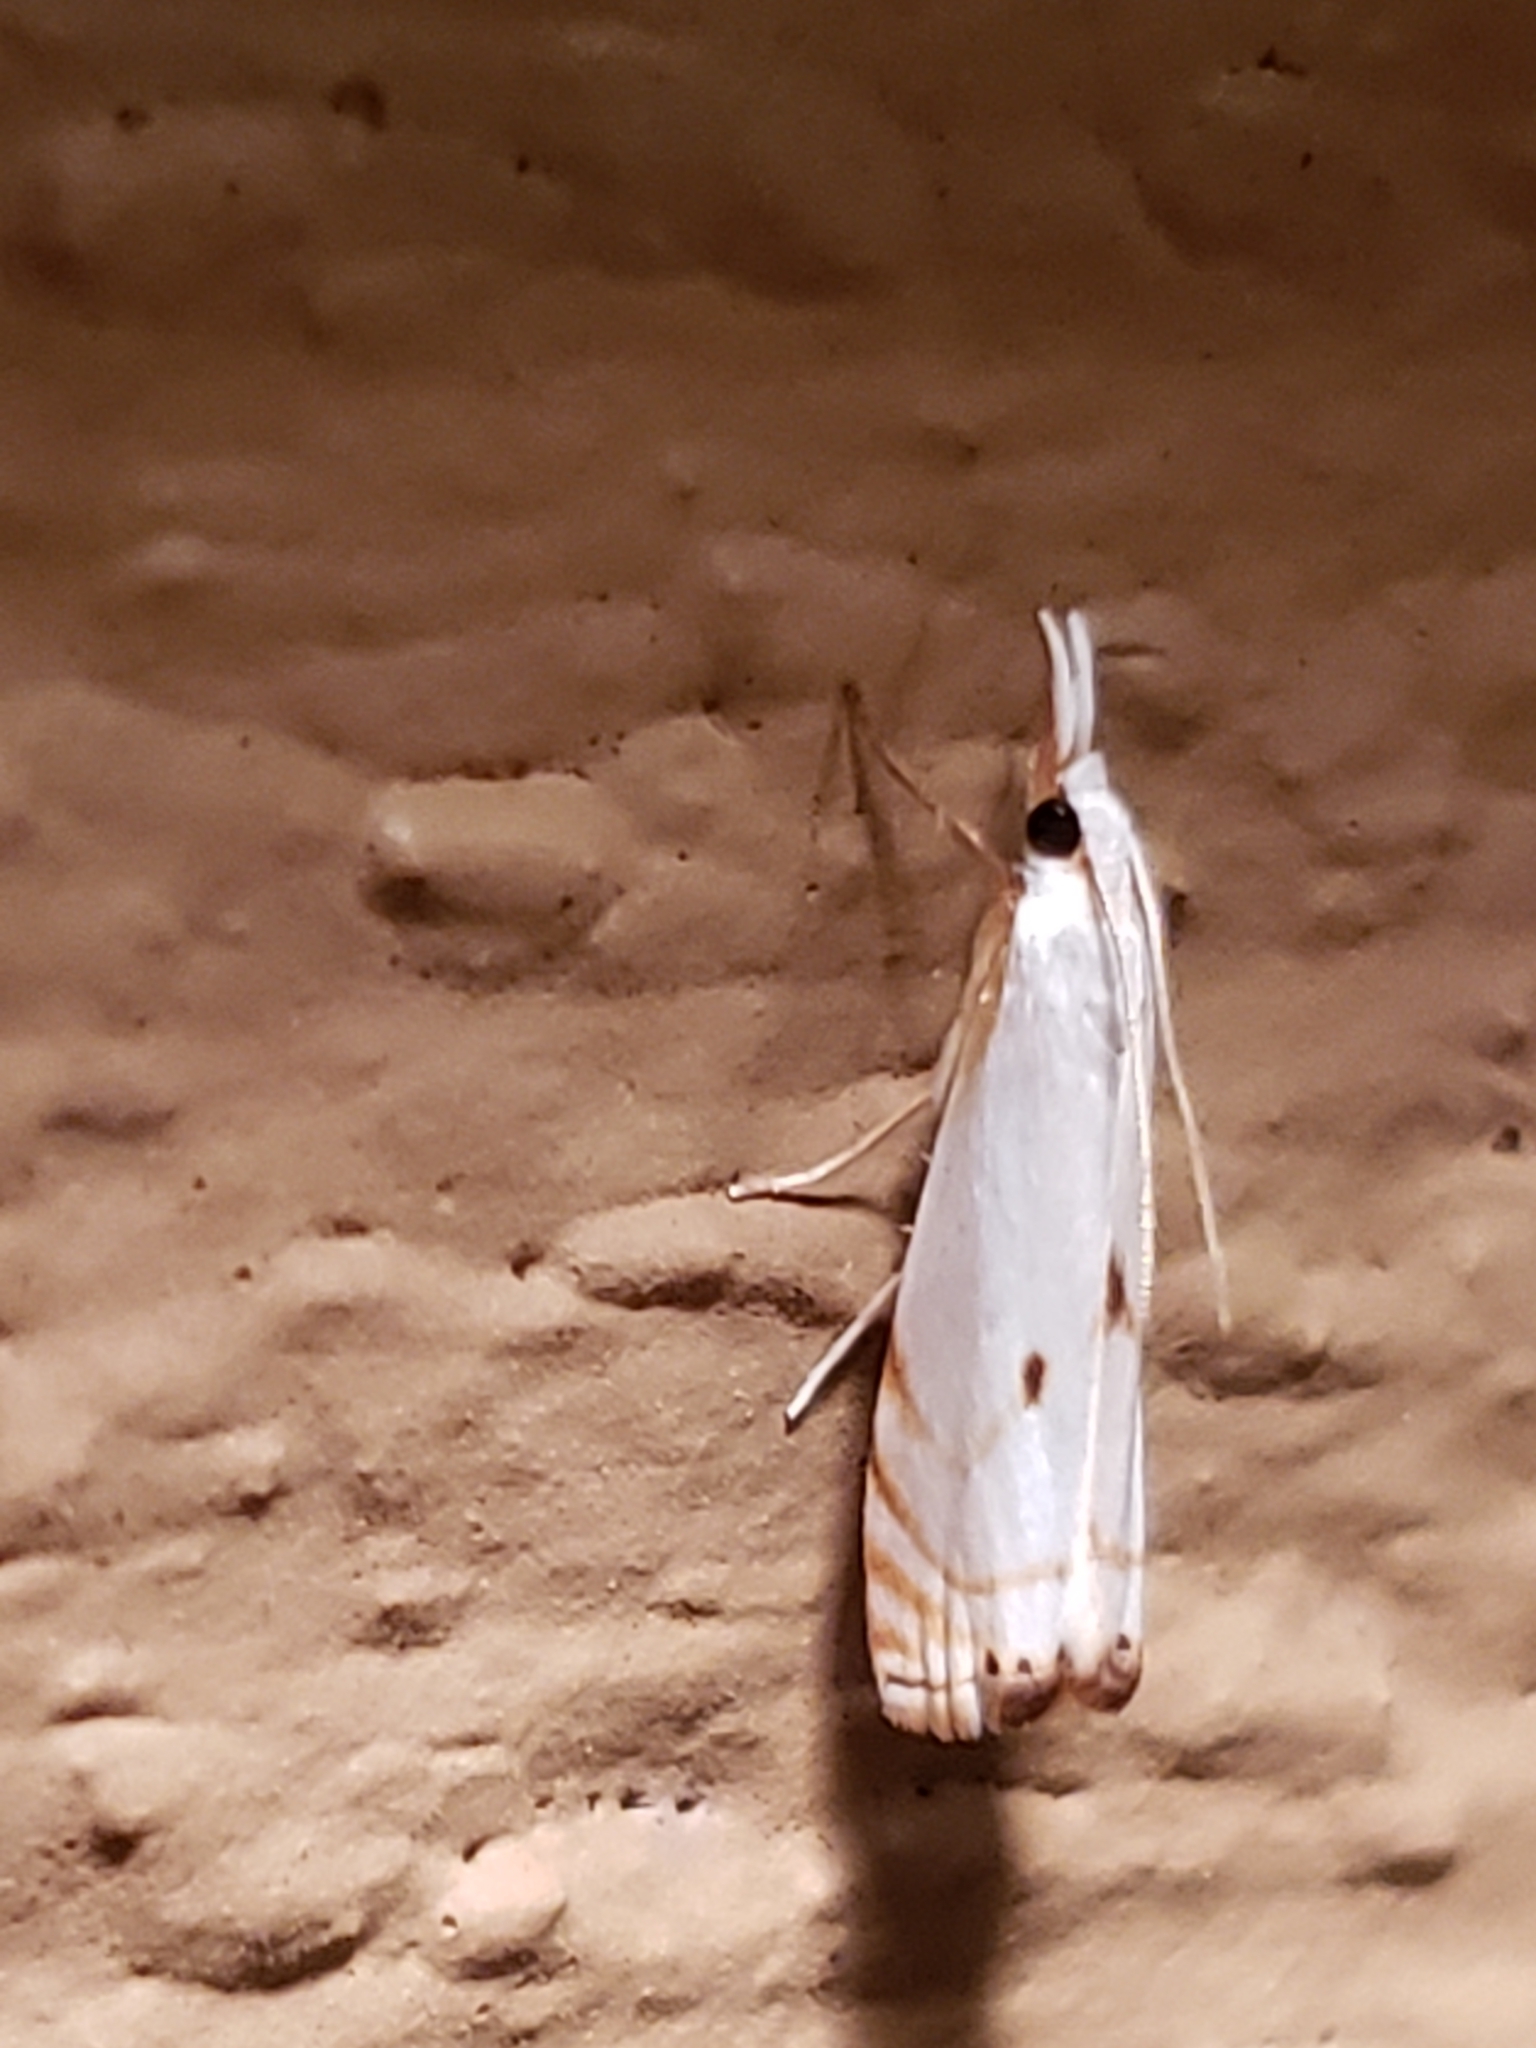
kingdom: Animalia
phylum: Arthropoda
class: Insecta
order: Lepidoptera
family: Crambidae
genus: Microcrambus
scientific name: Microcrambus biguttellus
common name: Gold-stripe grass-veneer moth
